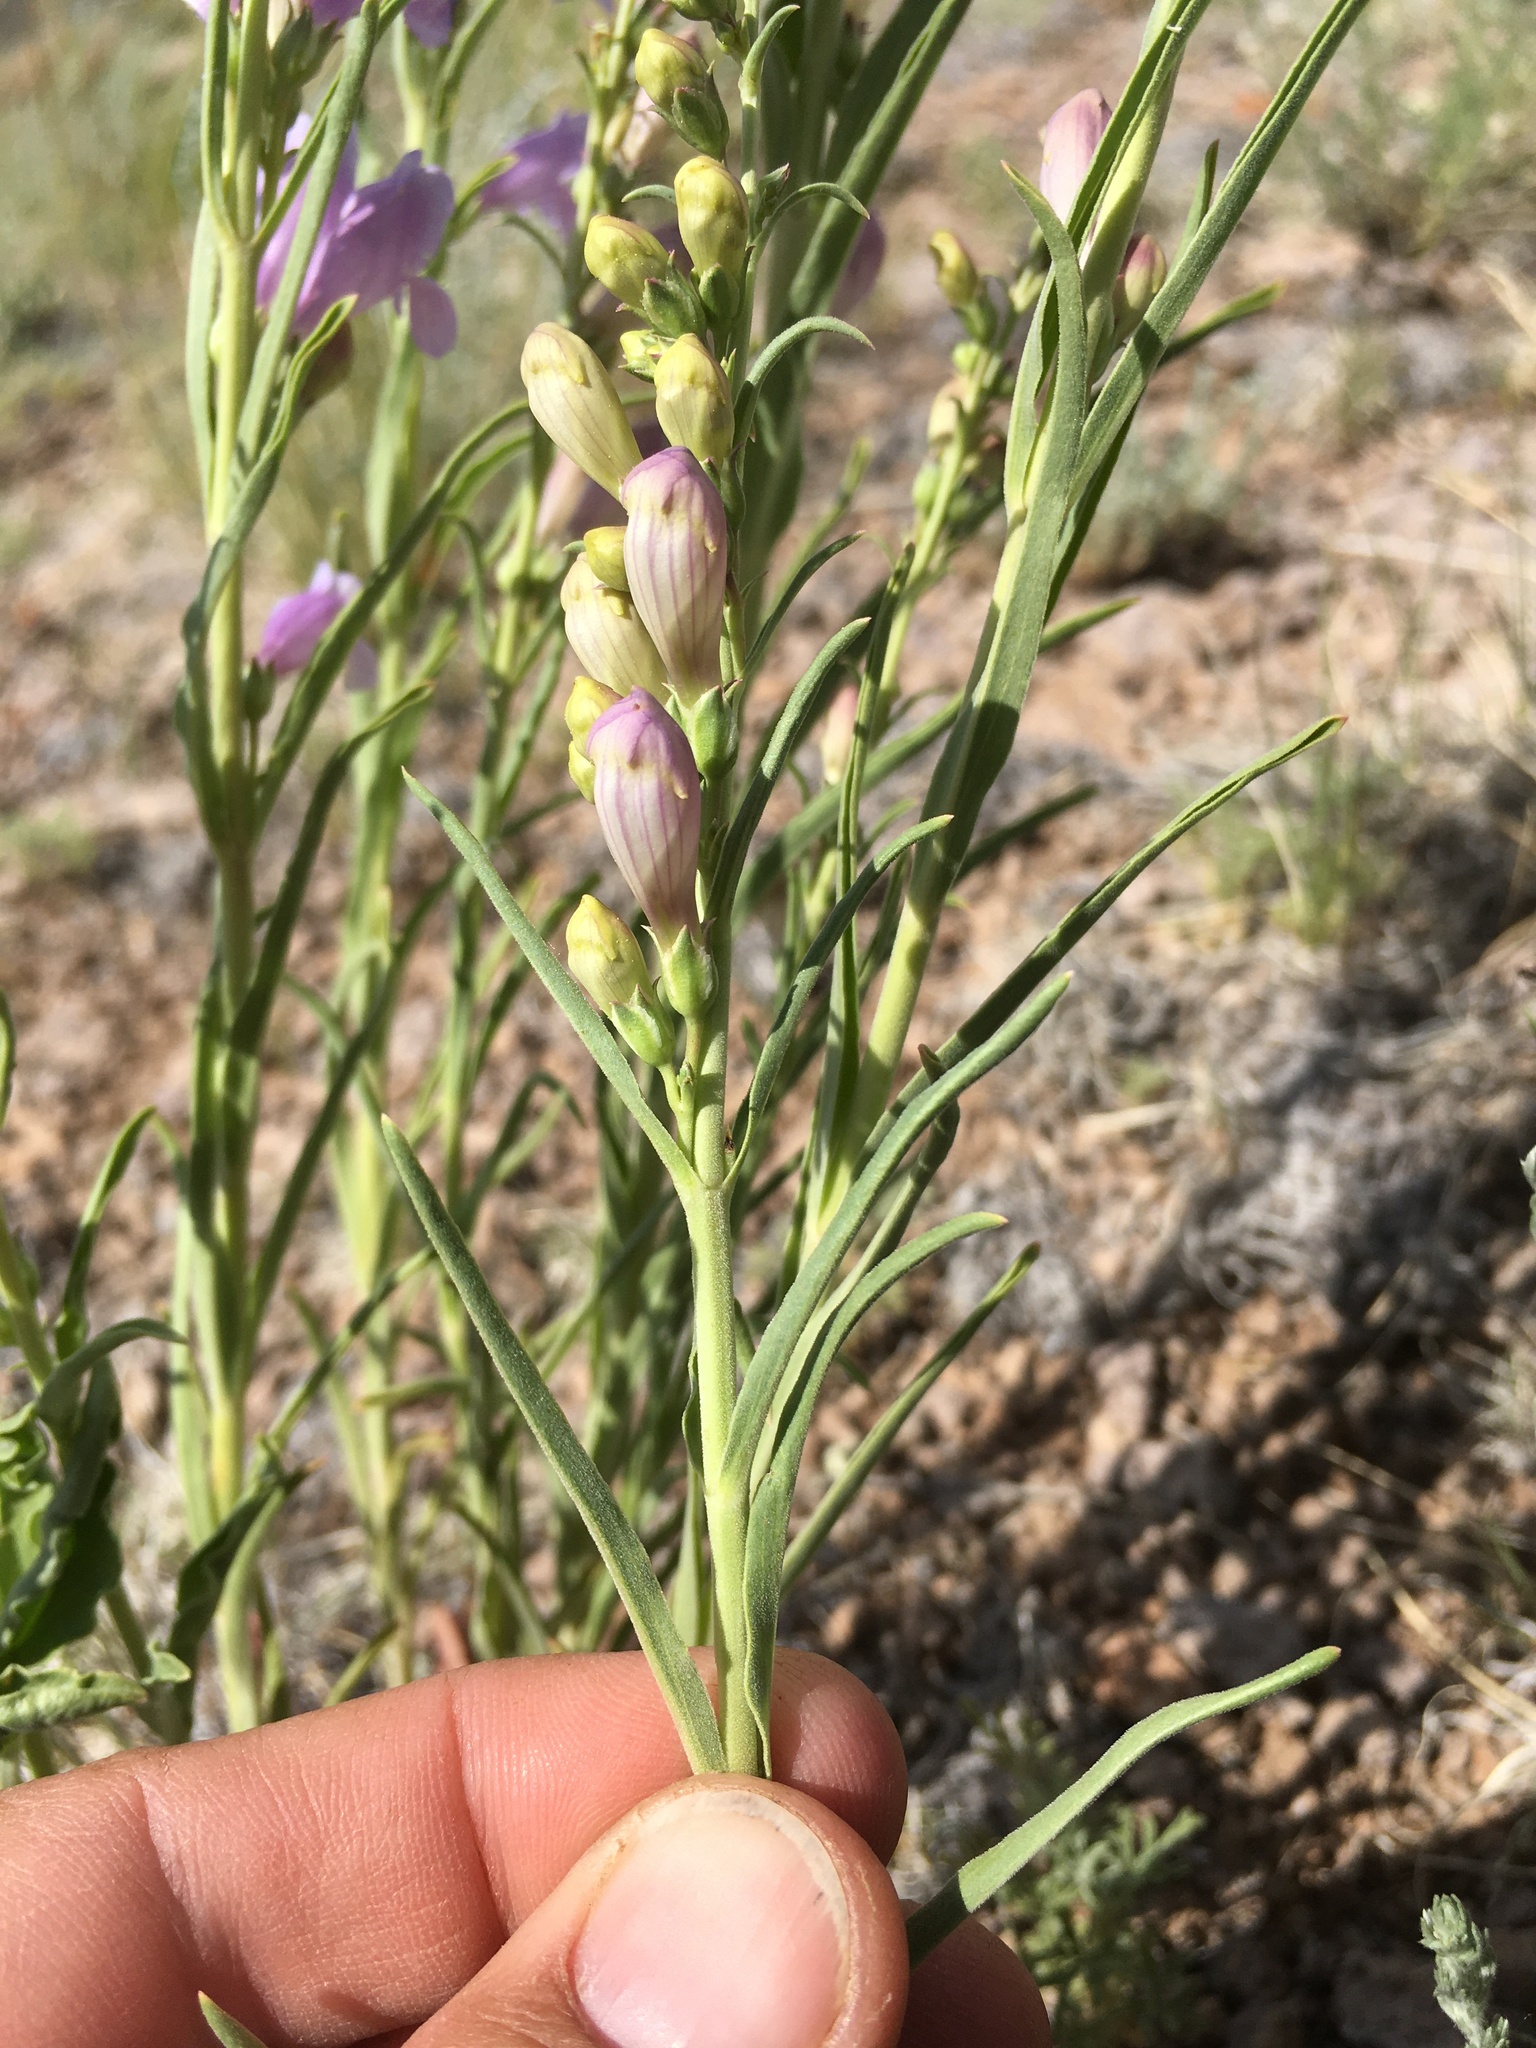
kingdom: Plantae
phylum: Tracheophyta
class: Magnoliopsida
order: Lamiales
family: Plantaginaceae
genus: Penstemon
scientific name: Penstemon virgatus
